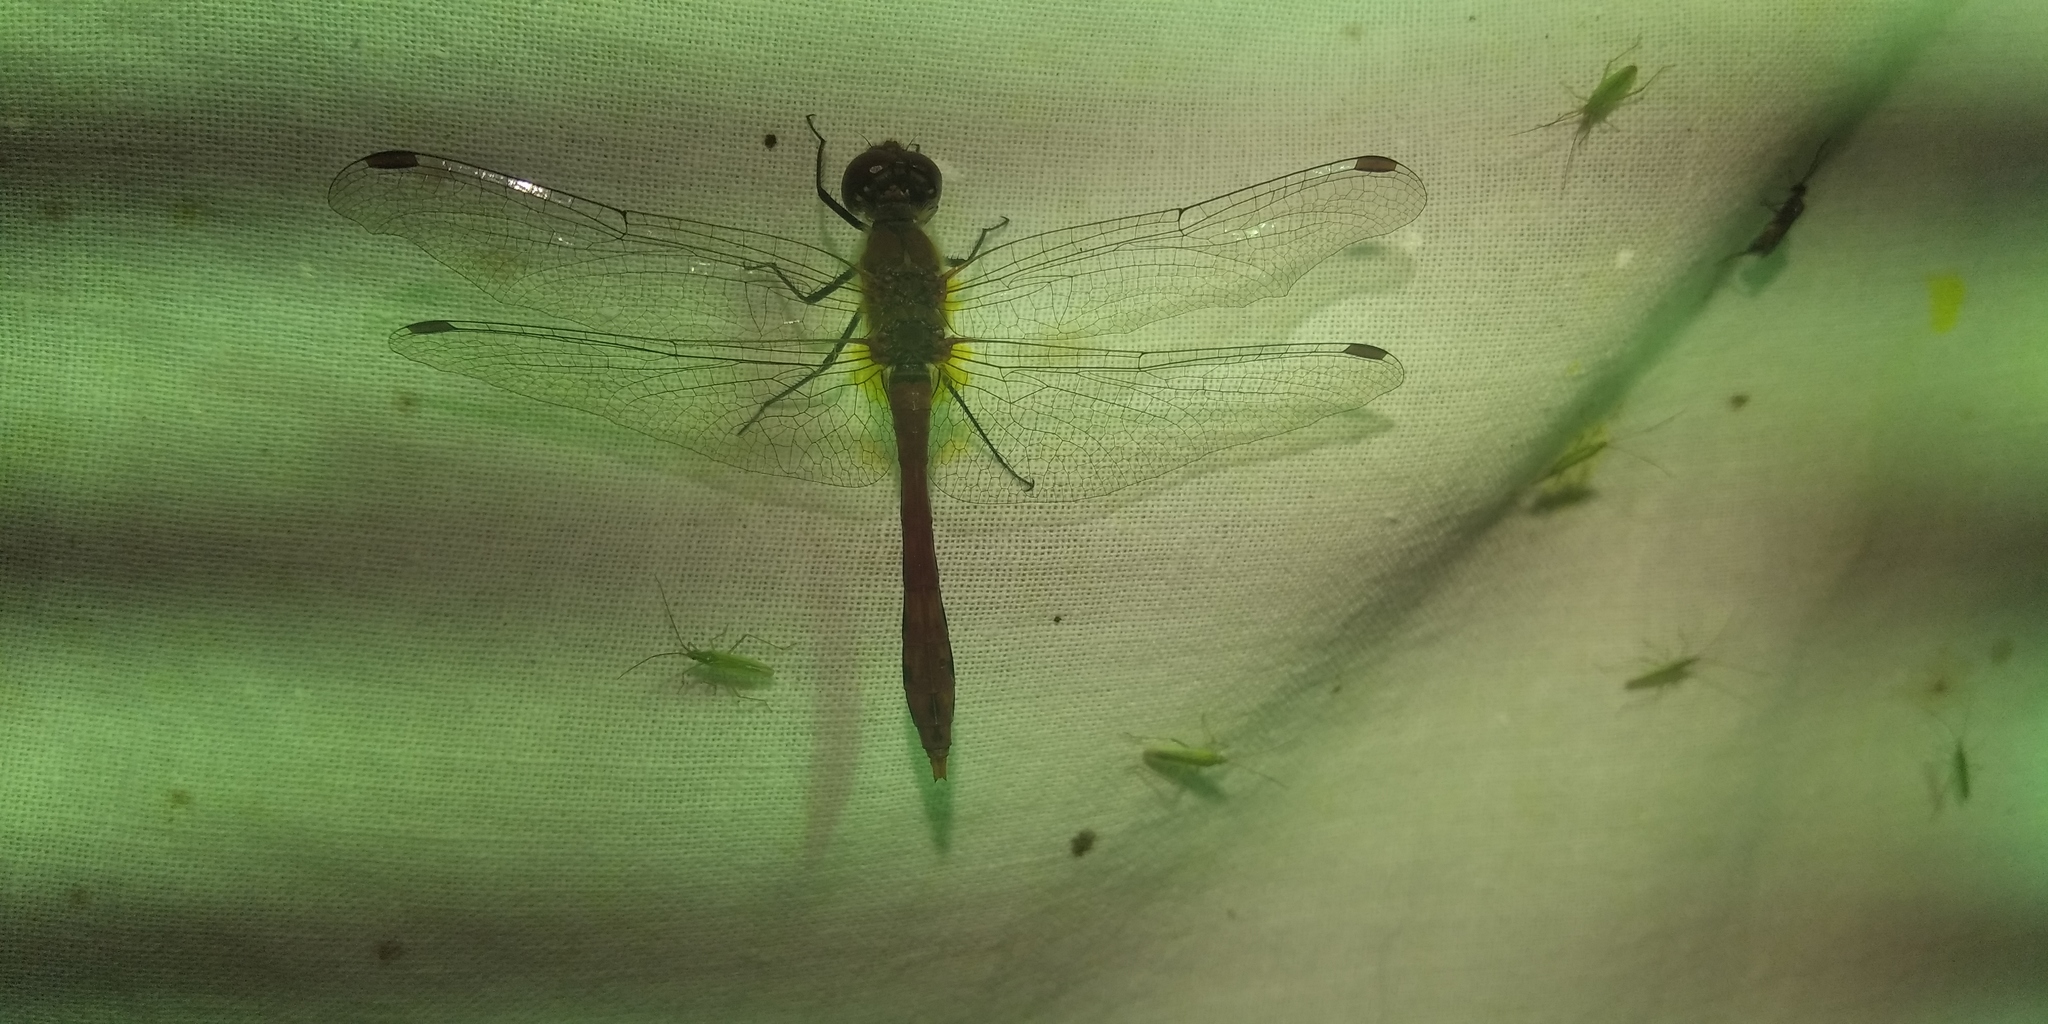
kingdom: Animalia
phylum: Arthropoda
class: Insecta
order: Odonata
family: Libellulidae
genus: Sympetrum
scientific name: Sympetrum sanguineum
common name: Ruddy darter
